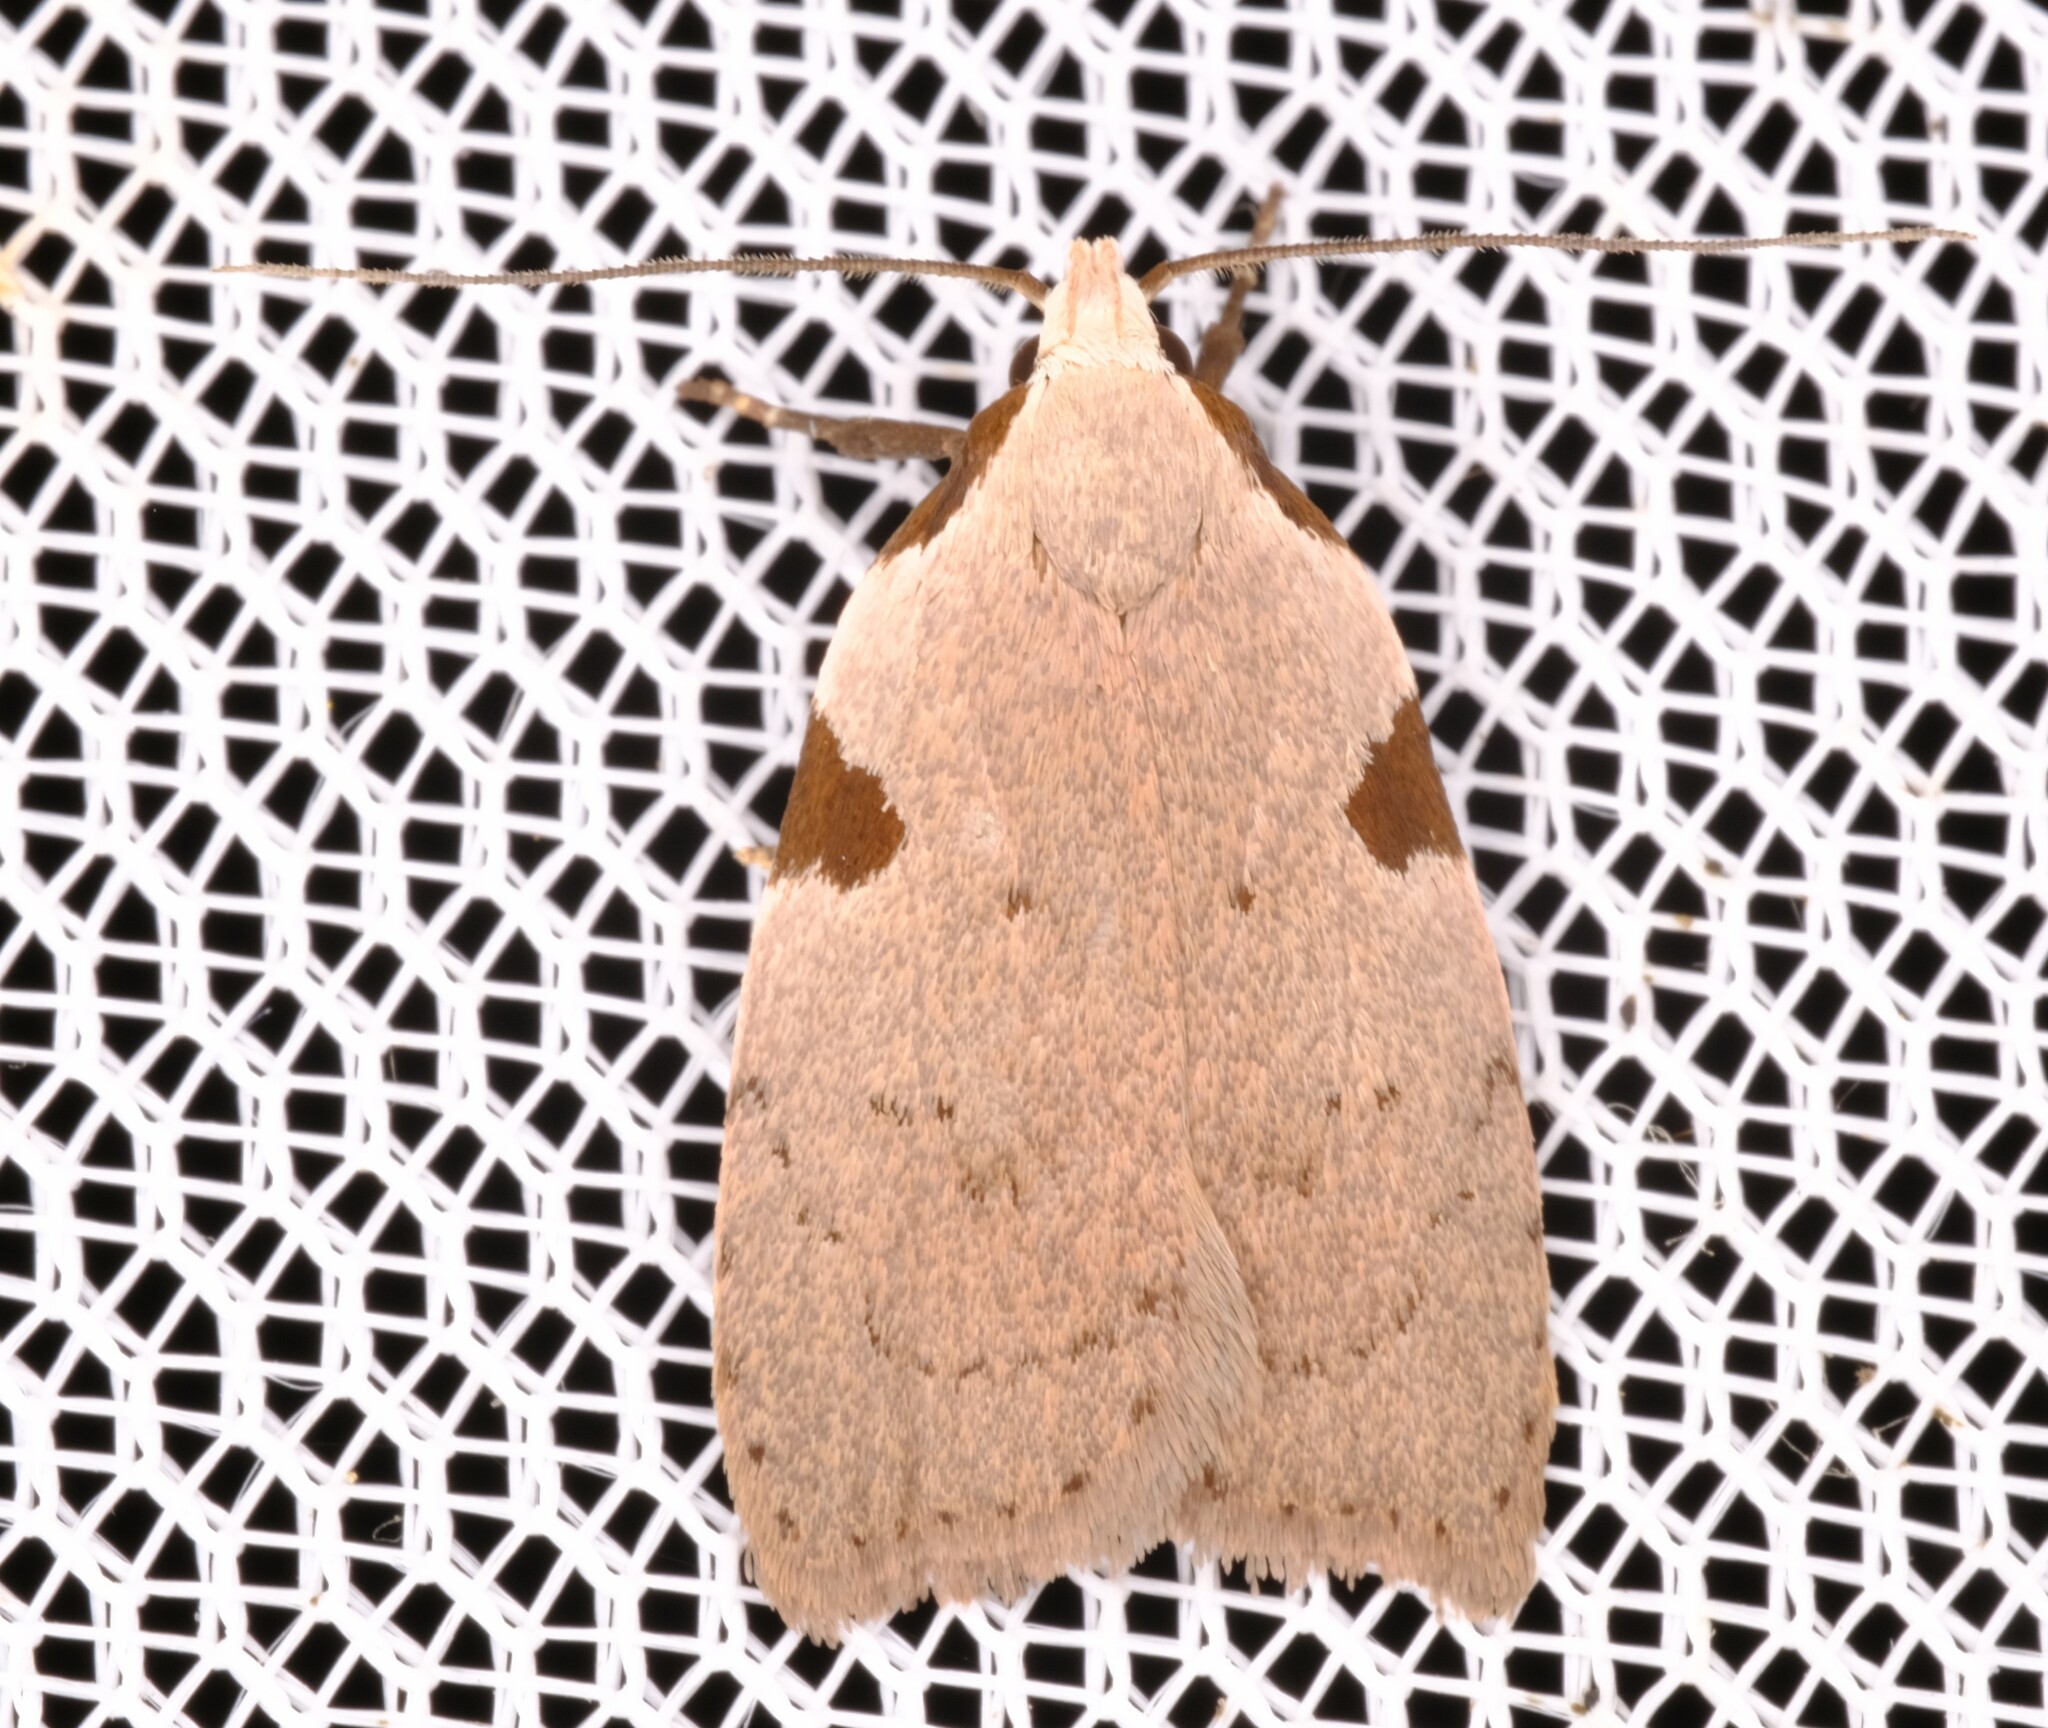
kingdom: Animalia
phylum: Arthropoda
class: Insecta
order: Lepidoptera
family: Oecophoridae
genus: Zonopetala
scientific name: Zonopetala quadripustulella
